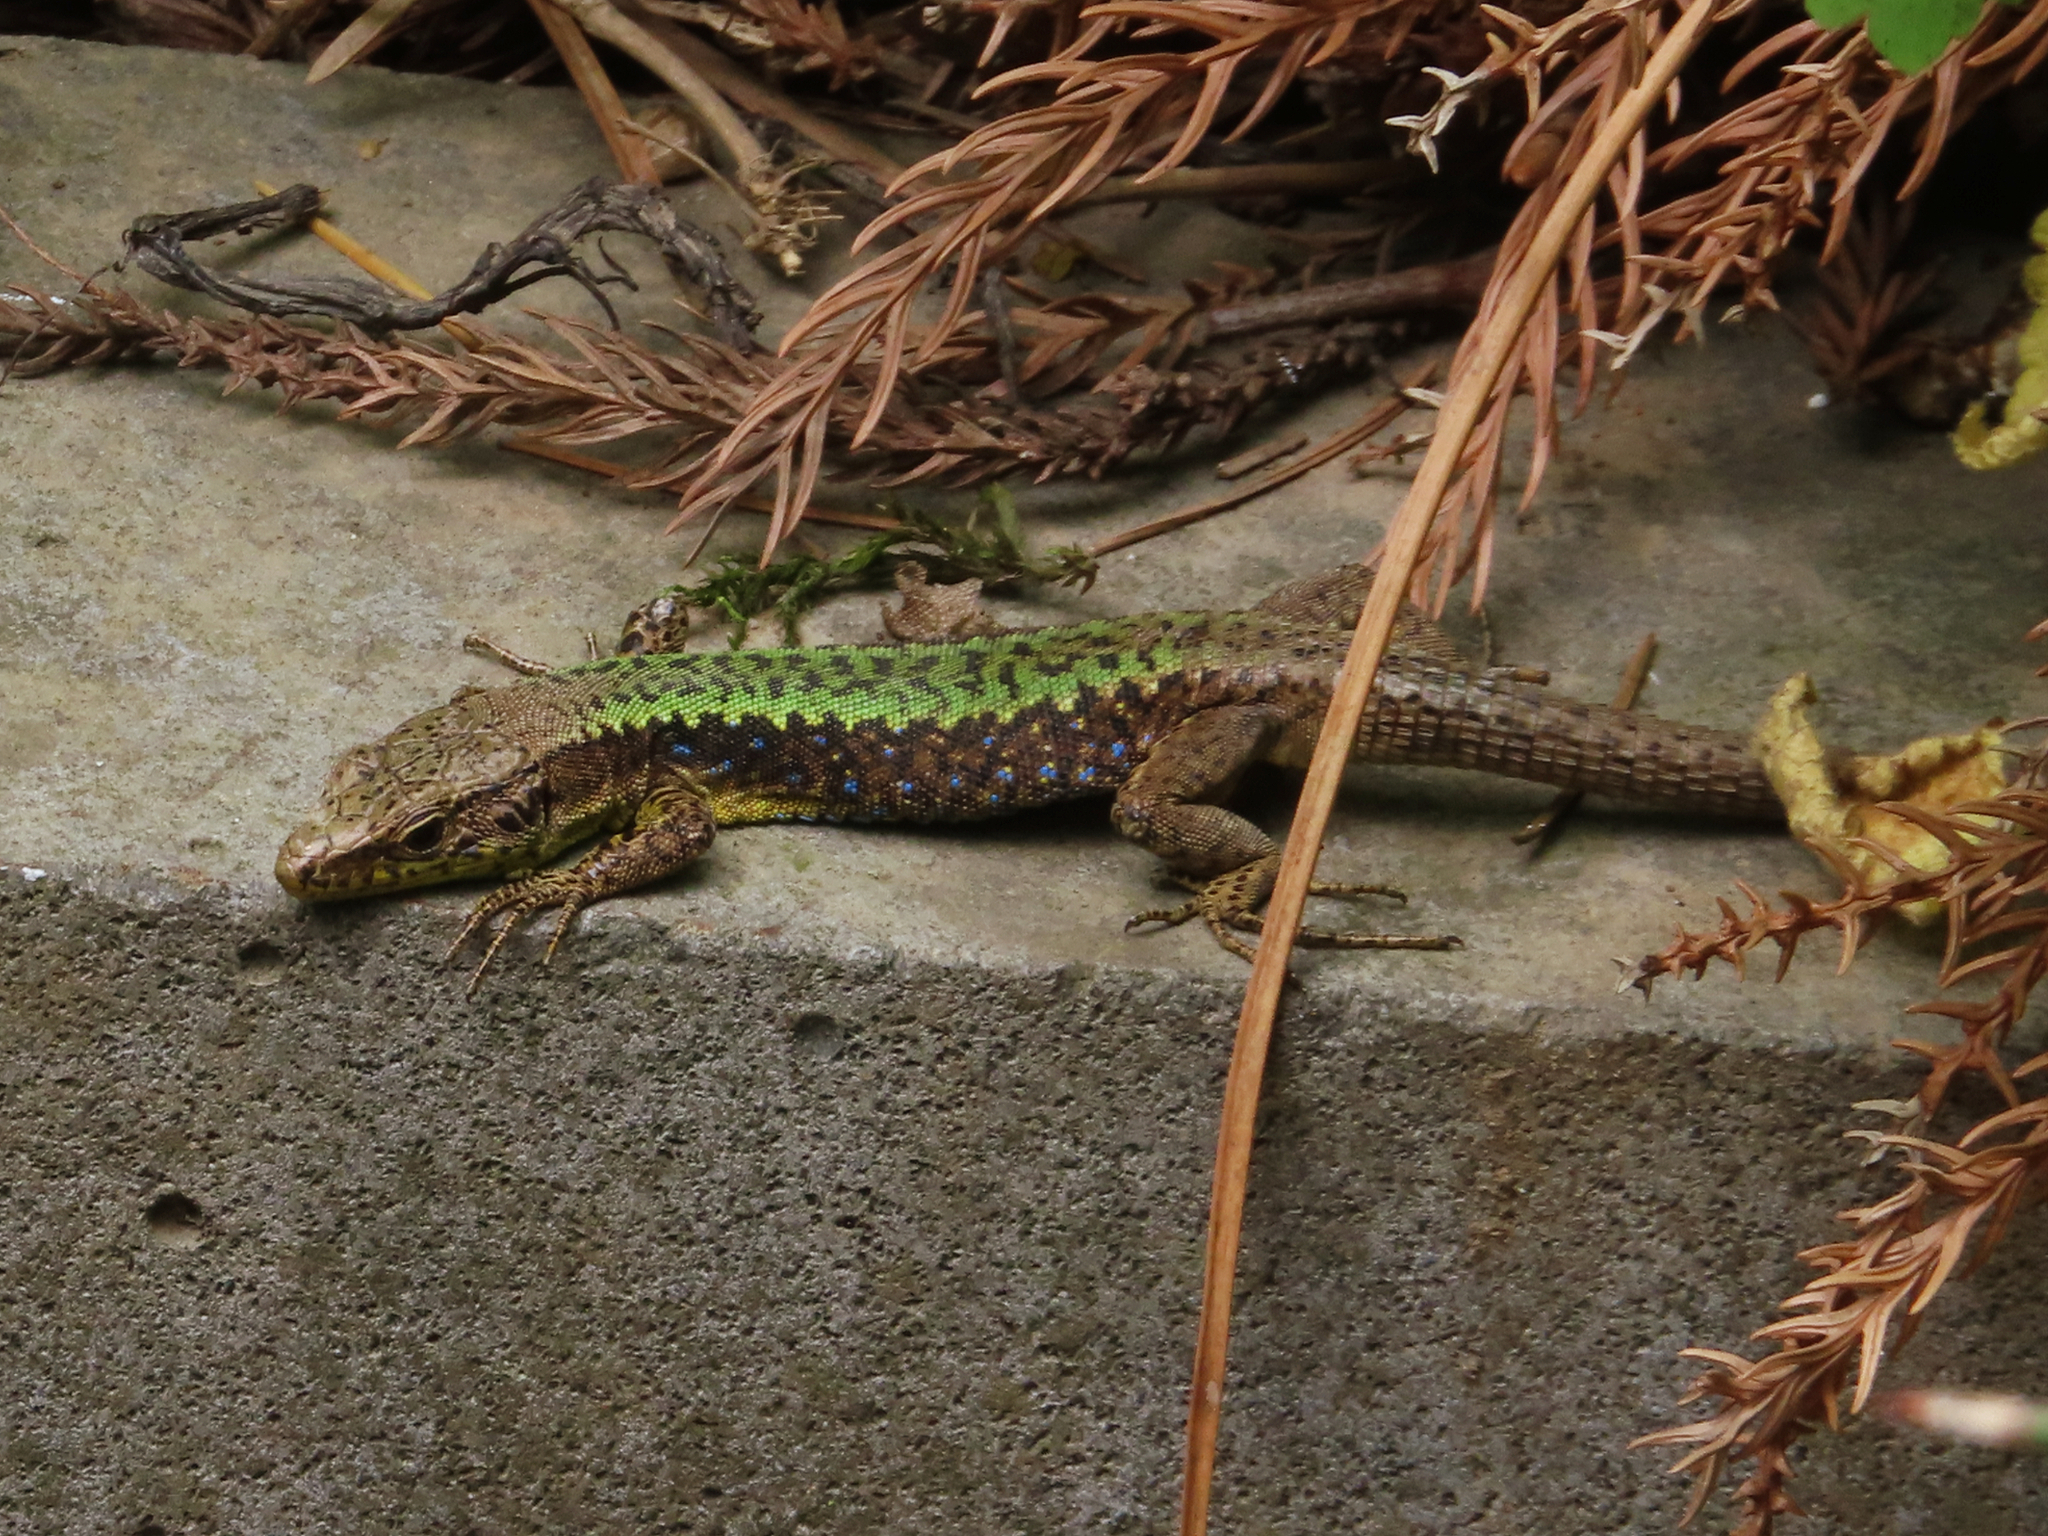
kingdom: Animalia
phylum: Chordata
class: Squamata
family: Lacertidae
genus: Darevskia
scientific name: Darevskia mixta
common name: Ajarian lizard
